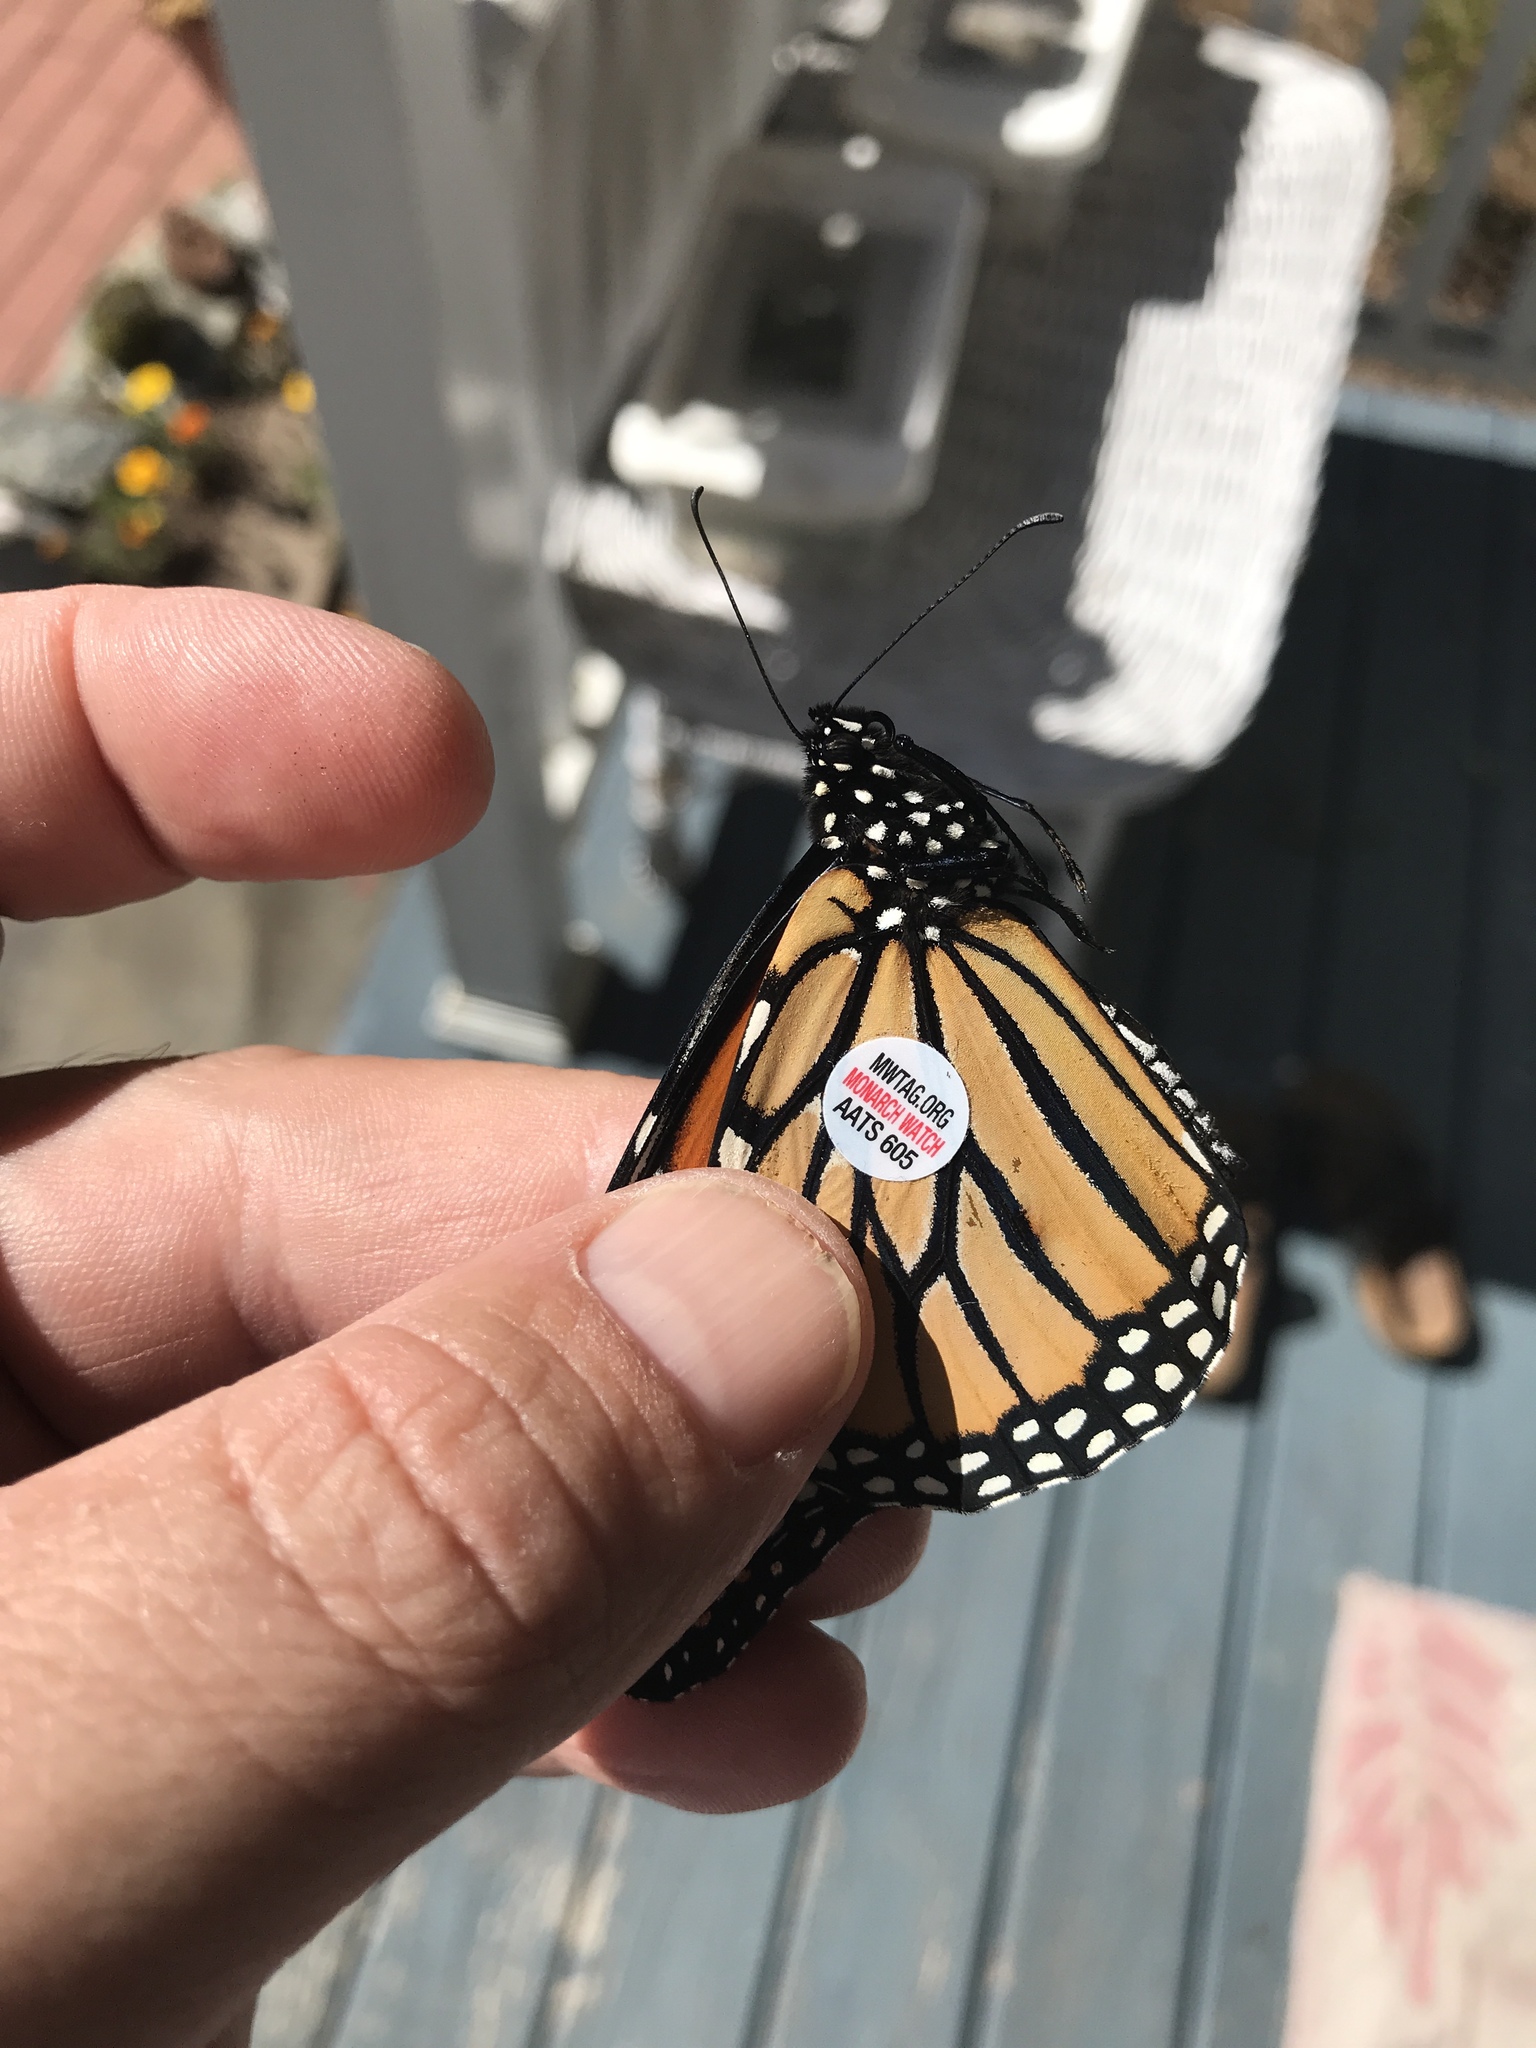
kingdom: Animalia
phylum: Arthropoda
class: Insecta
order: Lepidoptera
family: Nymphalidae
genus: Danaus
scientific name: Danaus plexippus
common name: Monarch
